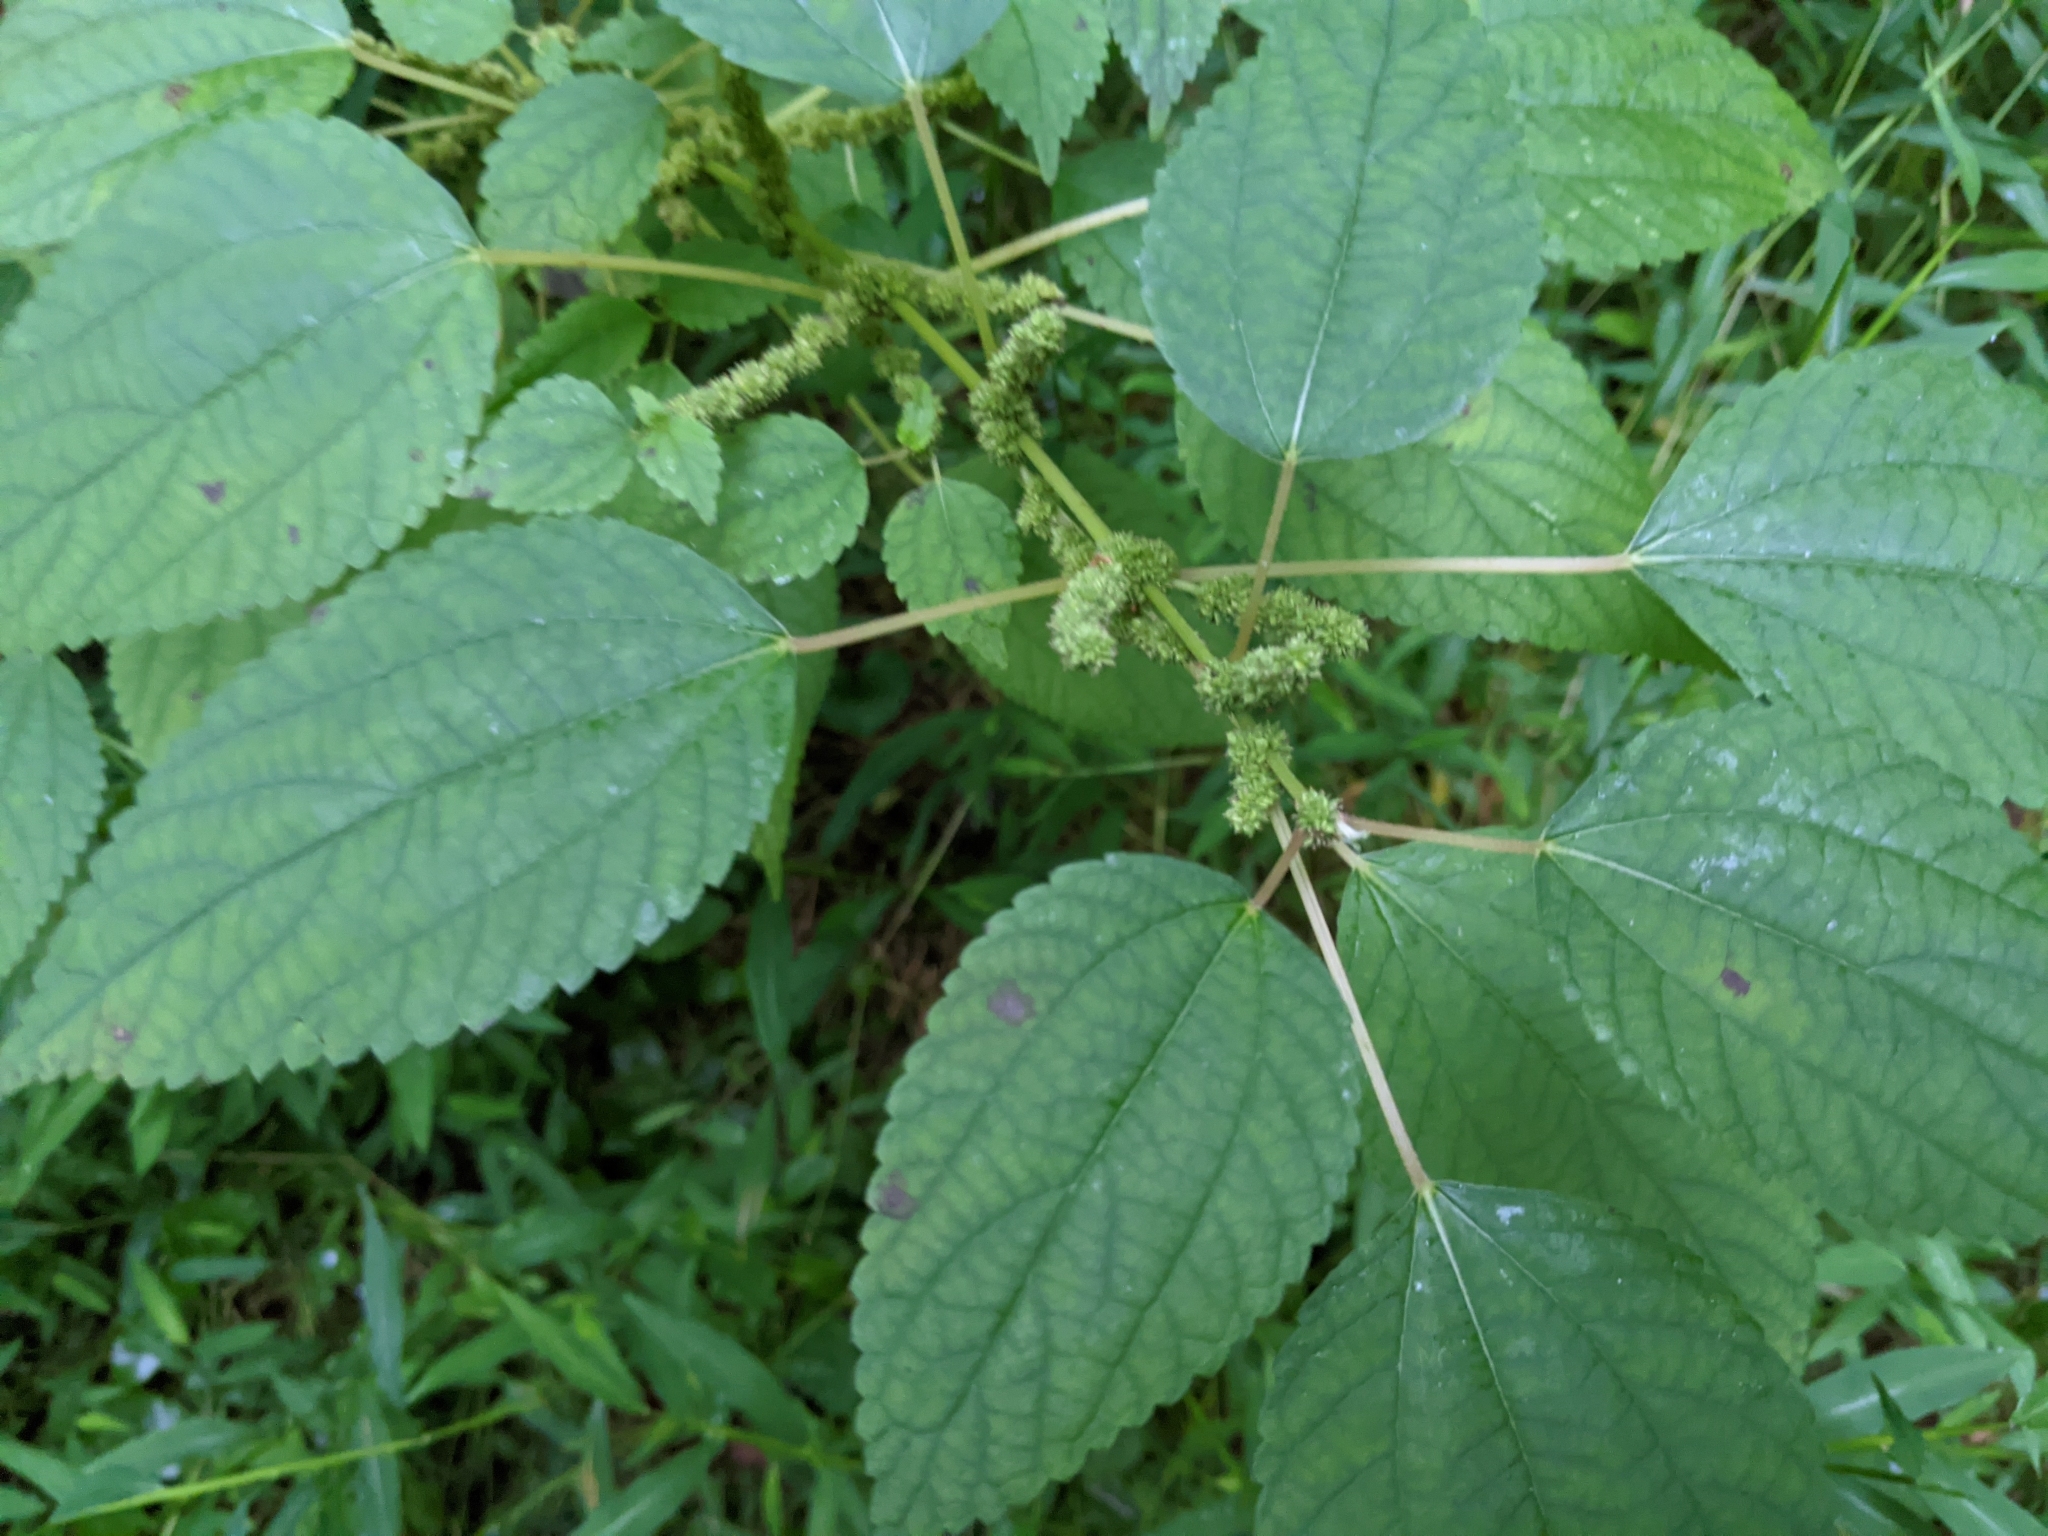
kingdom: Plantae
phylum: Tracheophyta
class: Magnoliopsida
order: Rosales
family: Urticaceae
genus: Boehmeria
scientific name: Boehmeria cylindrica
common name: Bog-hemp
